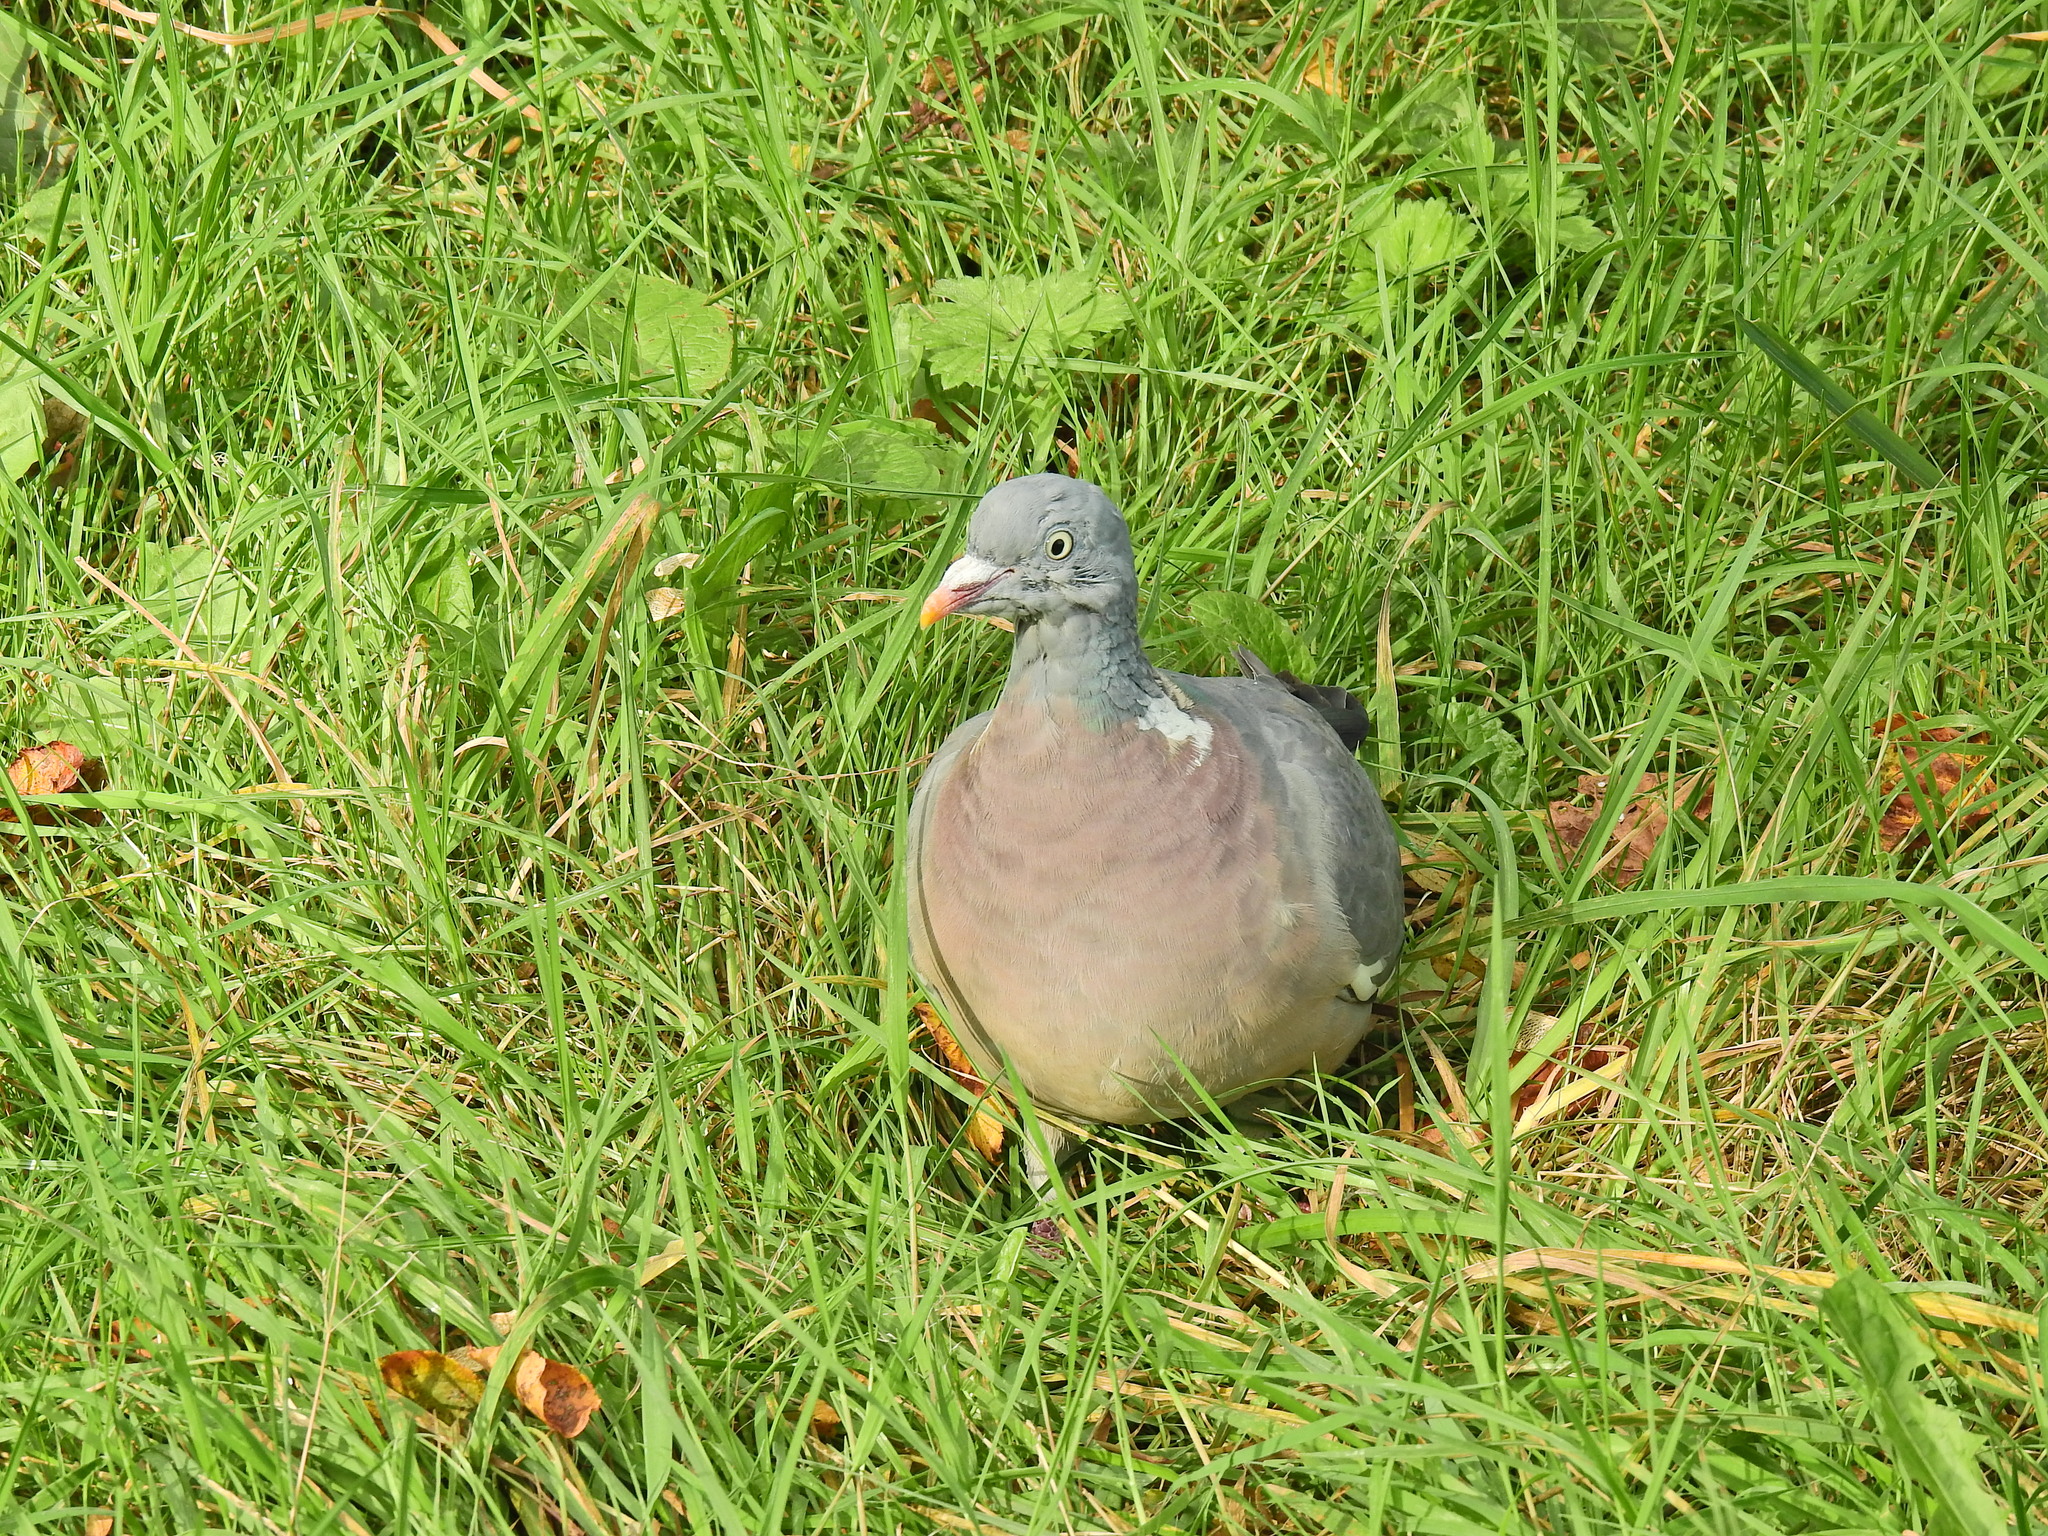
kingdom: Animalia
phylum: Chordata
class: Aves
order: Columbiformes
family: Columbidae
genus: Columba
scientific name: Columba palumbus
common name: Common wood pigeon
